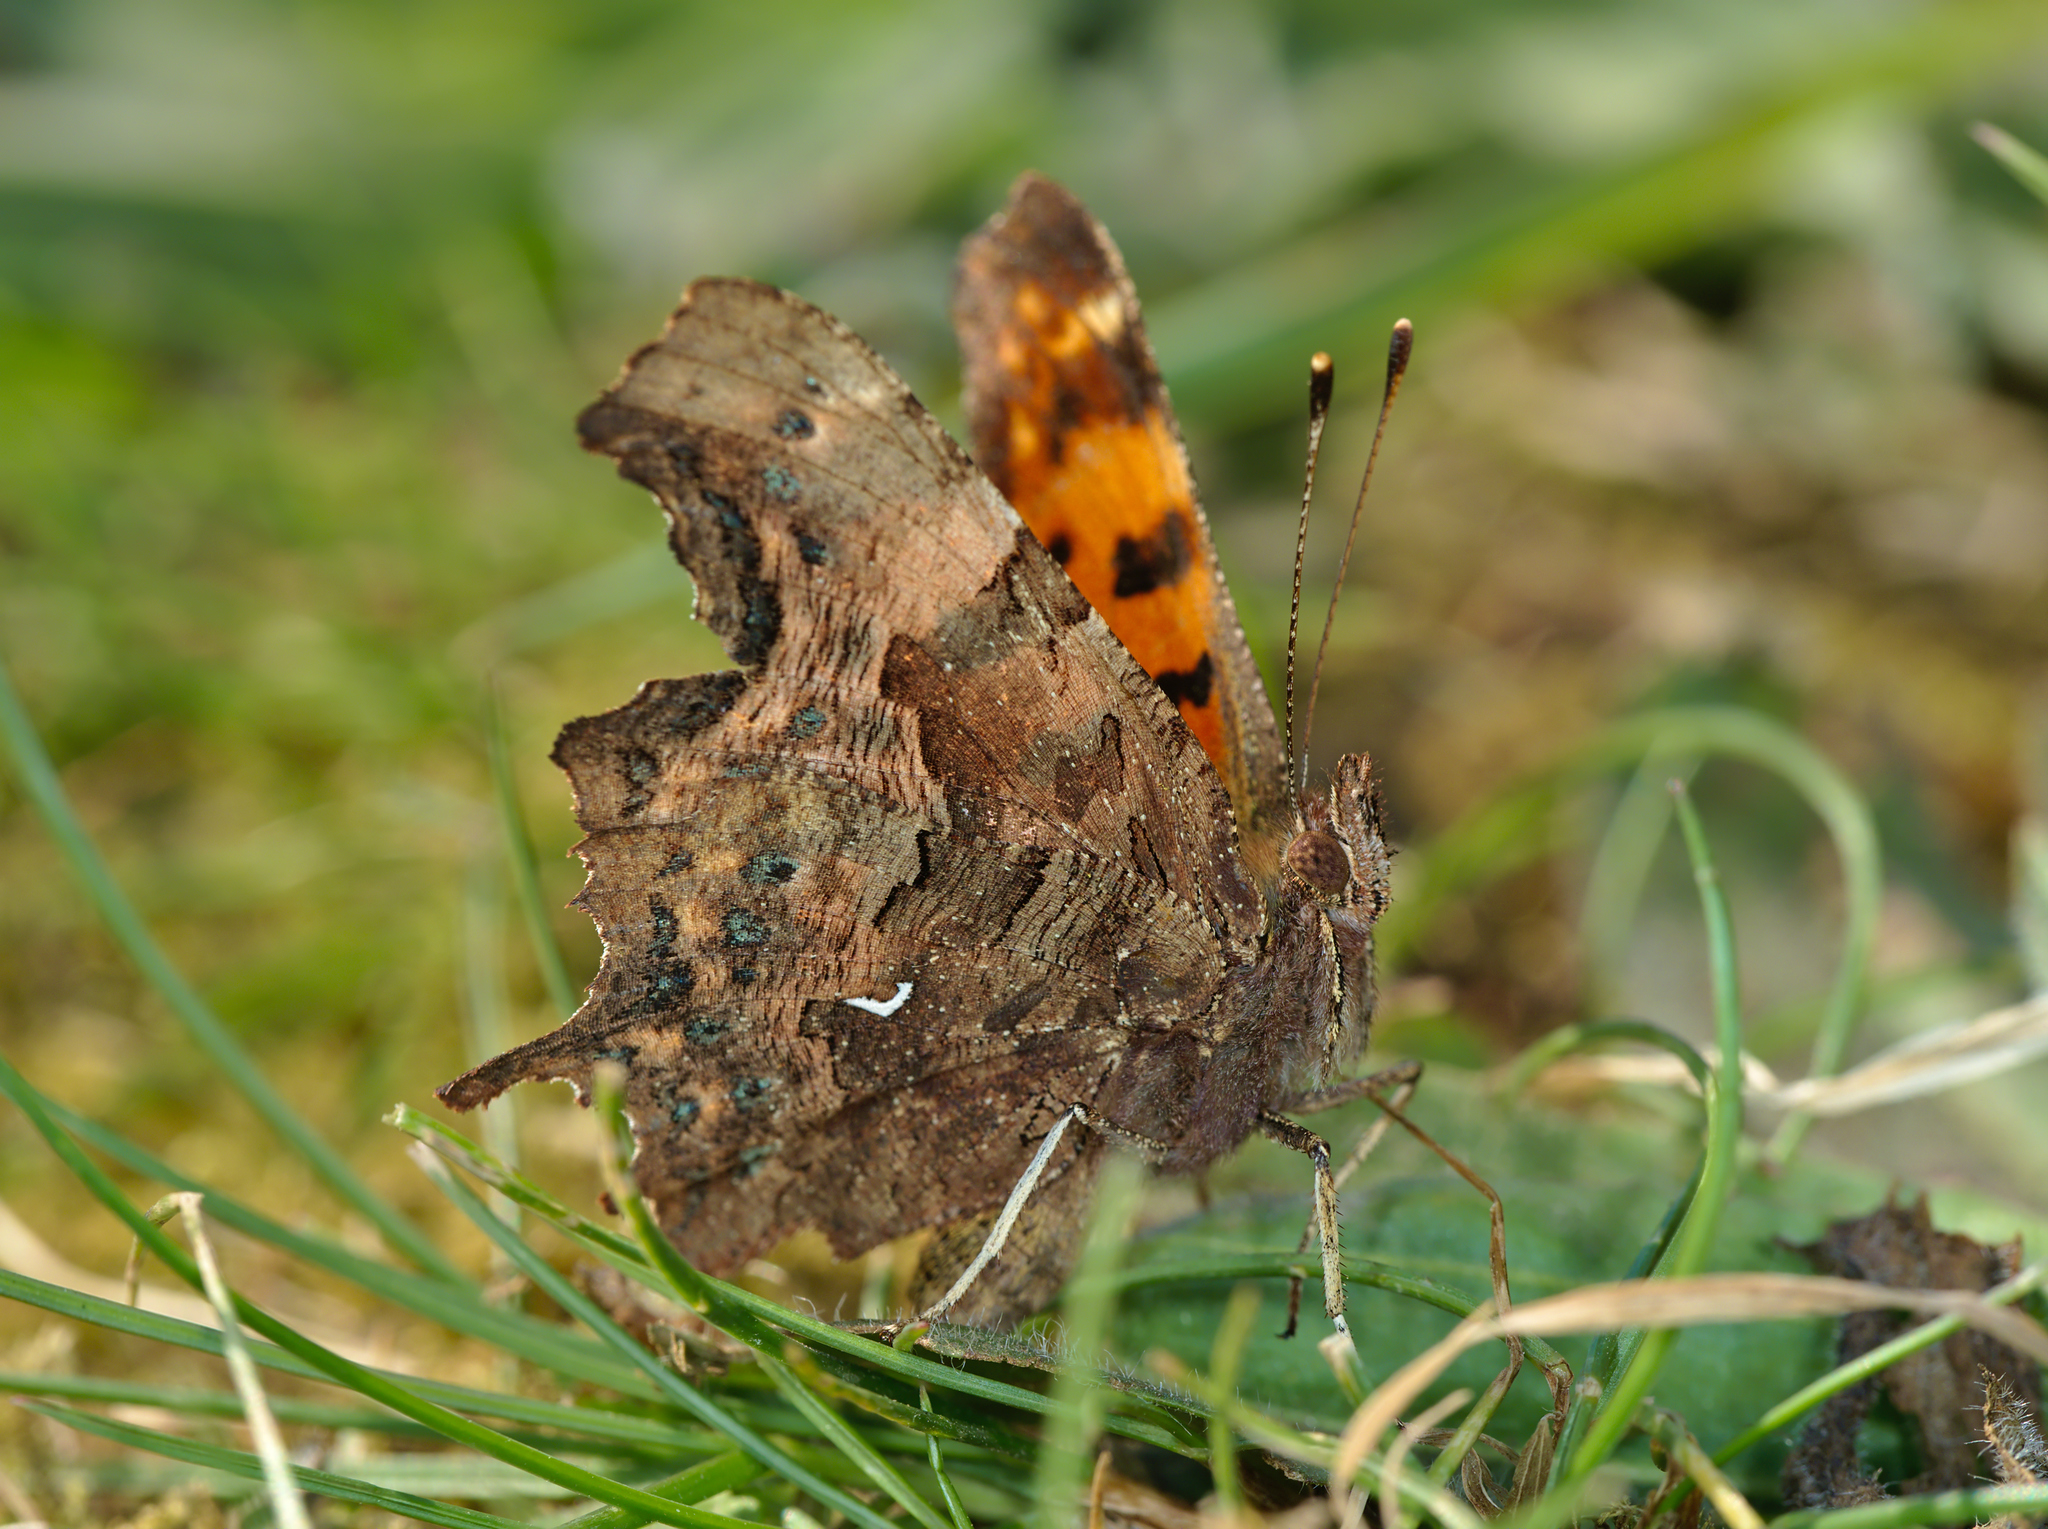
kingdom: Animalia
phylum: Arthropoda
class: Insecta
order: Lepidoptera
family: Nymphalidae
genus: Polygonia
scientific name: Polygonia c-album
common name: Comma
